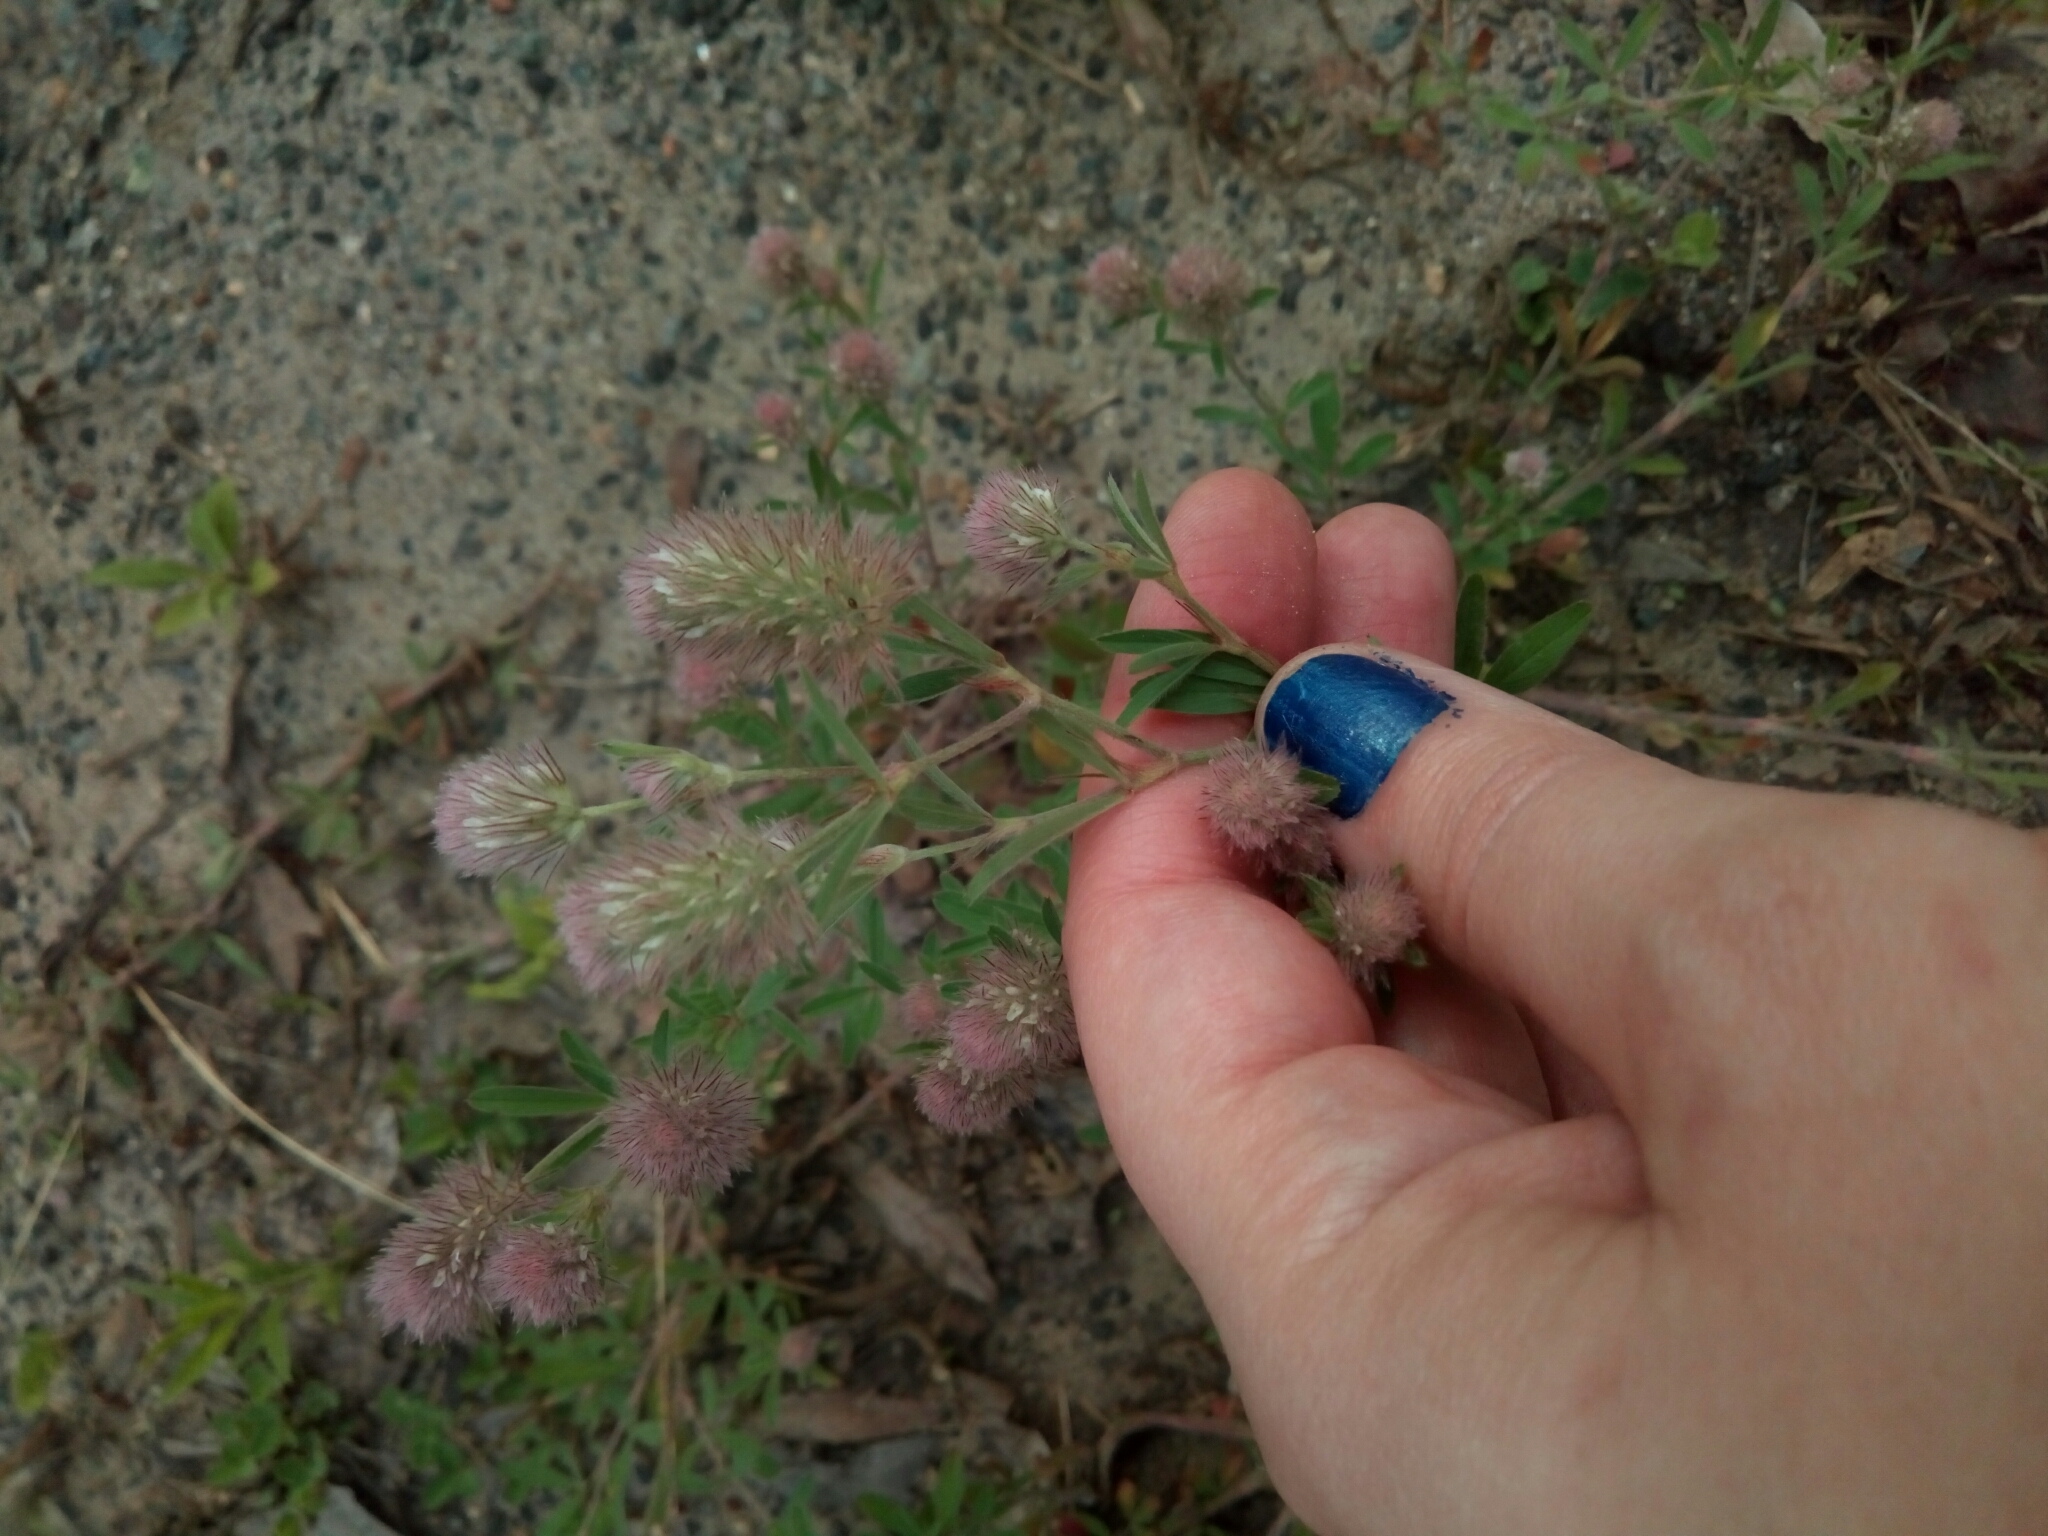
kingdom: Plantae
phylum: Tracheophyta
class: Magnoliopsida
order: Fabales
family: Fabaceae
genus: Trifolium
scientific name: Trifolium arvense
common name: Hare's-foot clover
